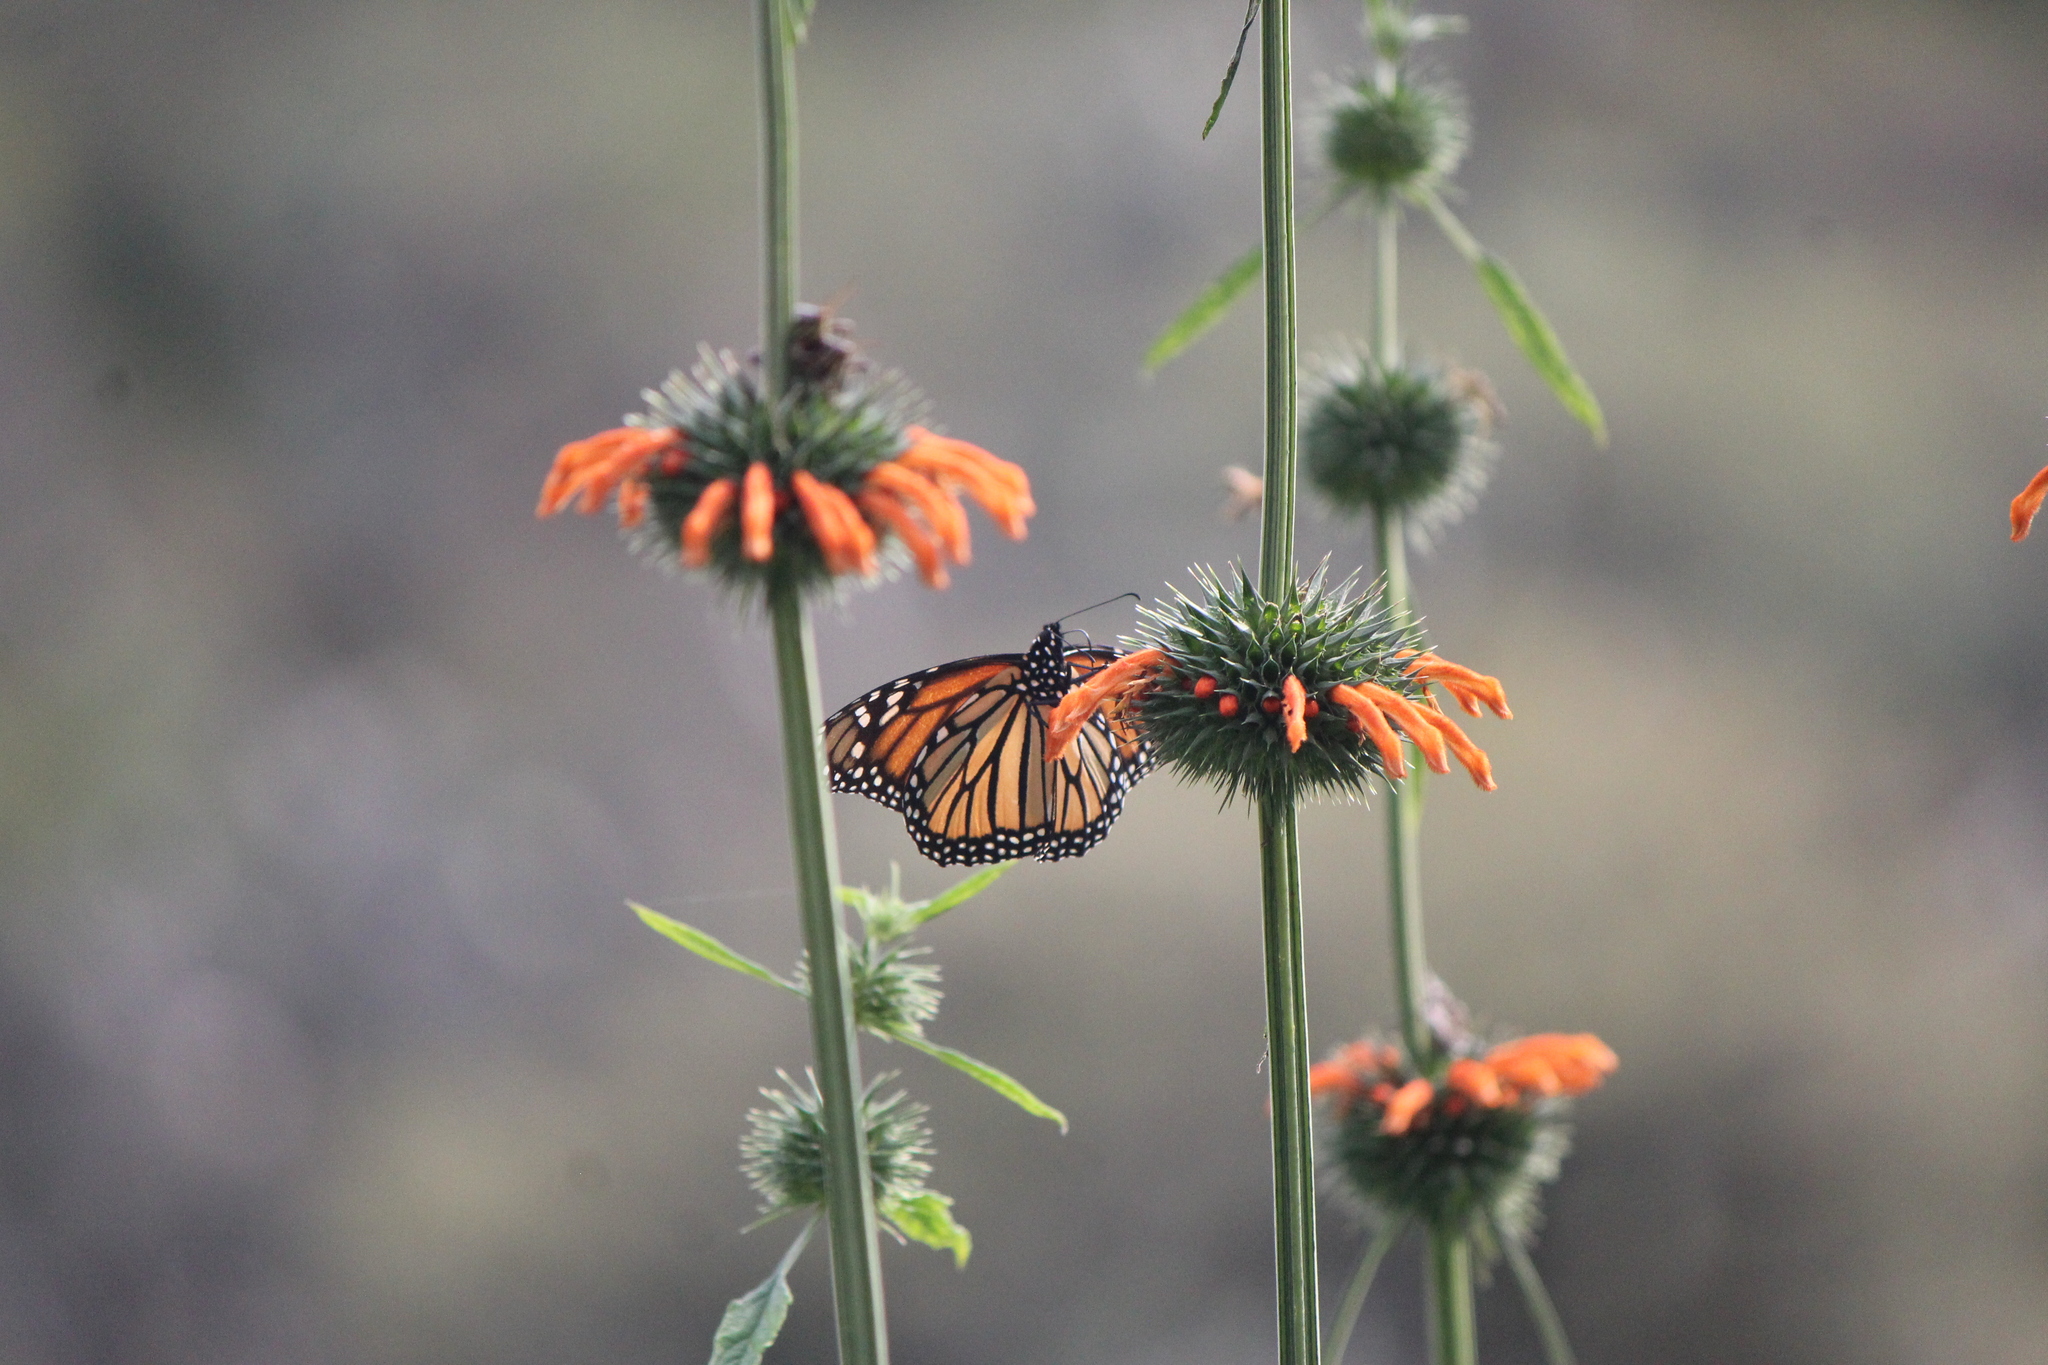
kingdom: Animalia
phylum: Arthropoda
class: Insecta
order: Lepidoptera
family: Nymphalidae
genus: Danaus
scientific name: Danaus plexippus
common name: Monarch
